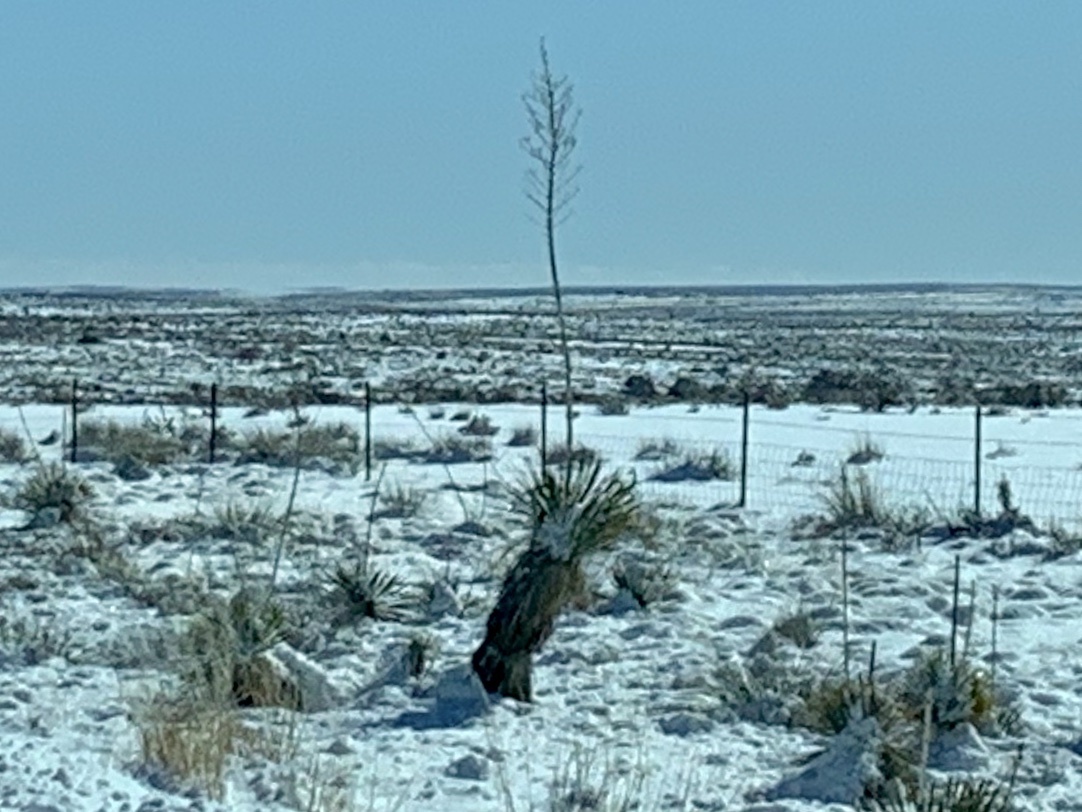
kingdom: Plantae
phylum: Tracheophyta
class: Liliopsida
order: Asparagales
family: Asparagaceae
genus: Yucca
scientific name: Yucca elata
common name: Palmella
